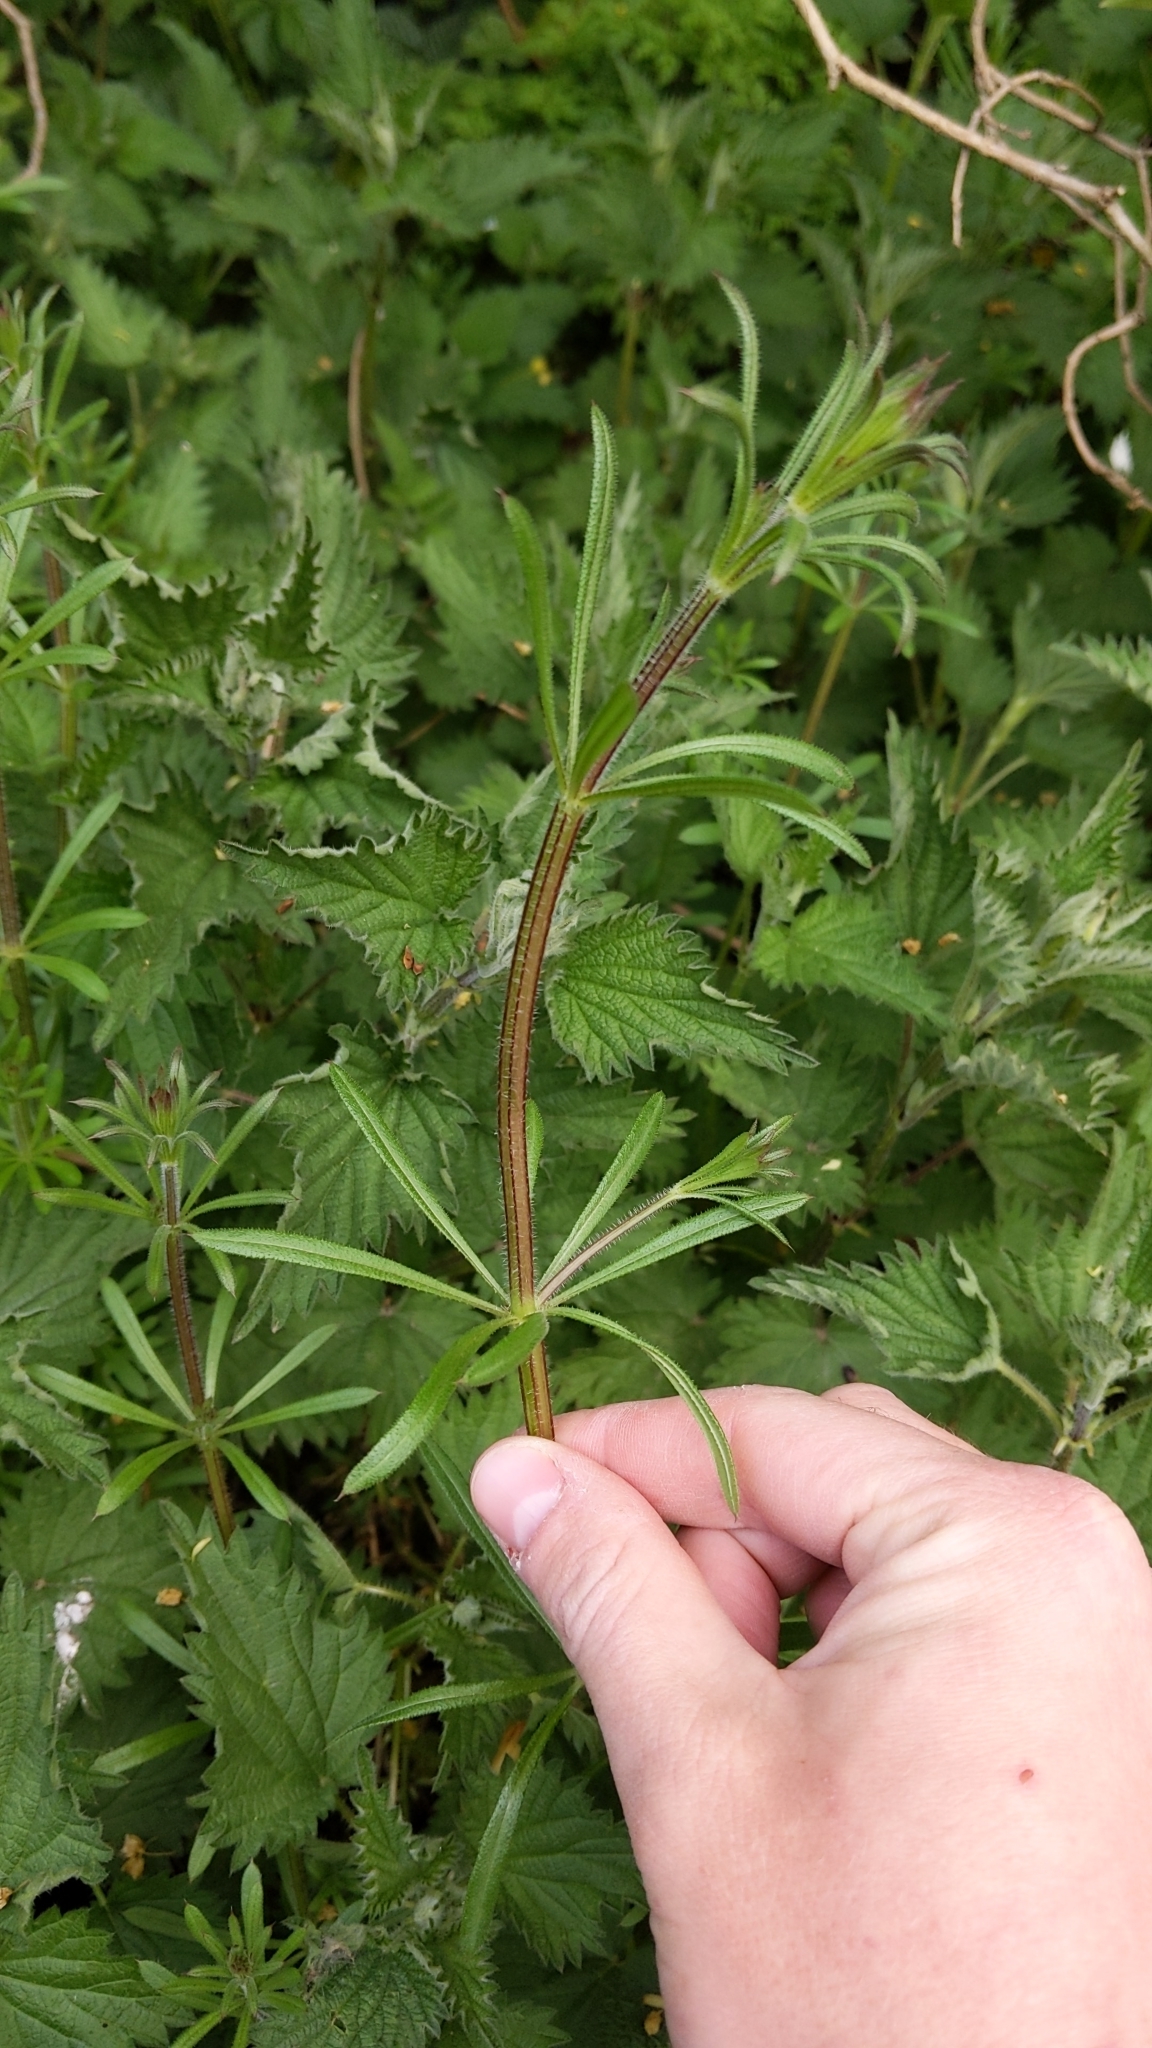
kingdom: Plantae
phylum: Tracheophyta
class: Magnoliopsida
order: Gentianales
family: Rubiaceae
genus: Galium
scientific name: Galium aparine
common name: Cleavers
